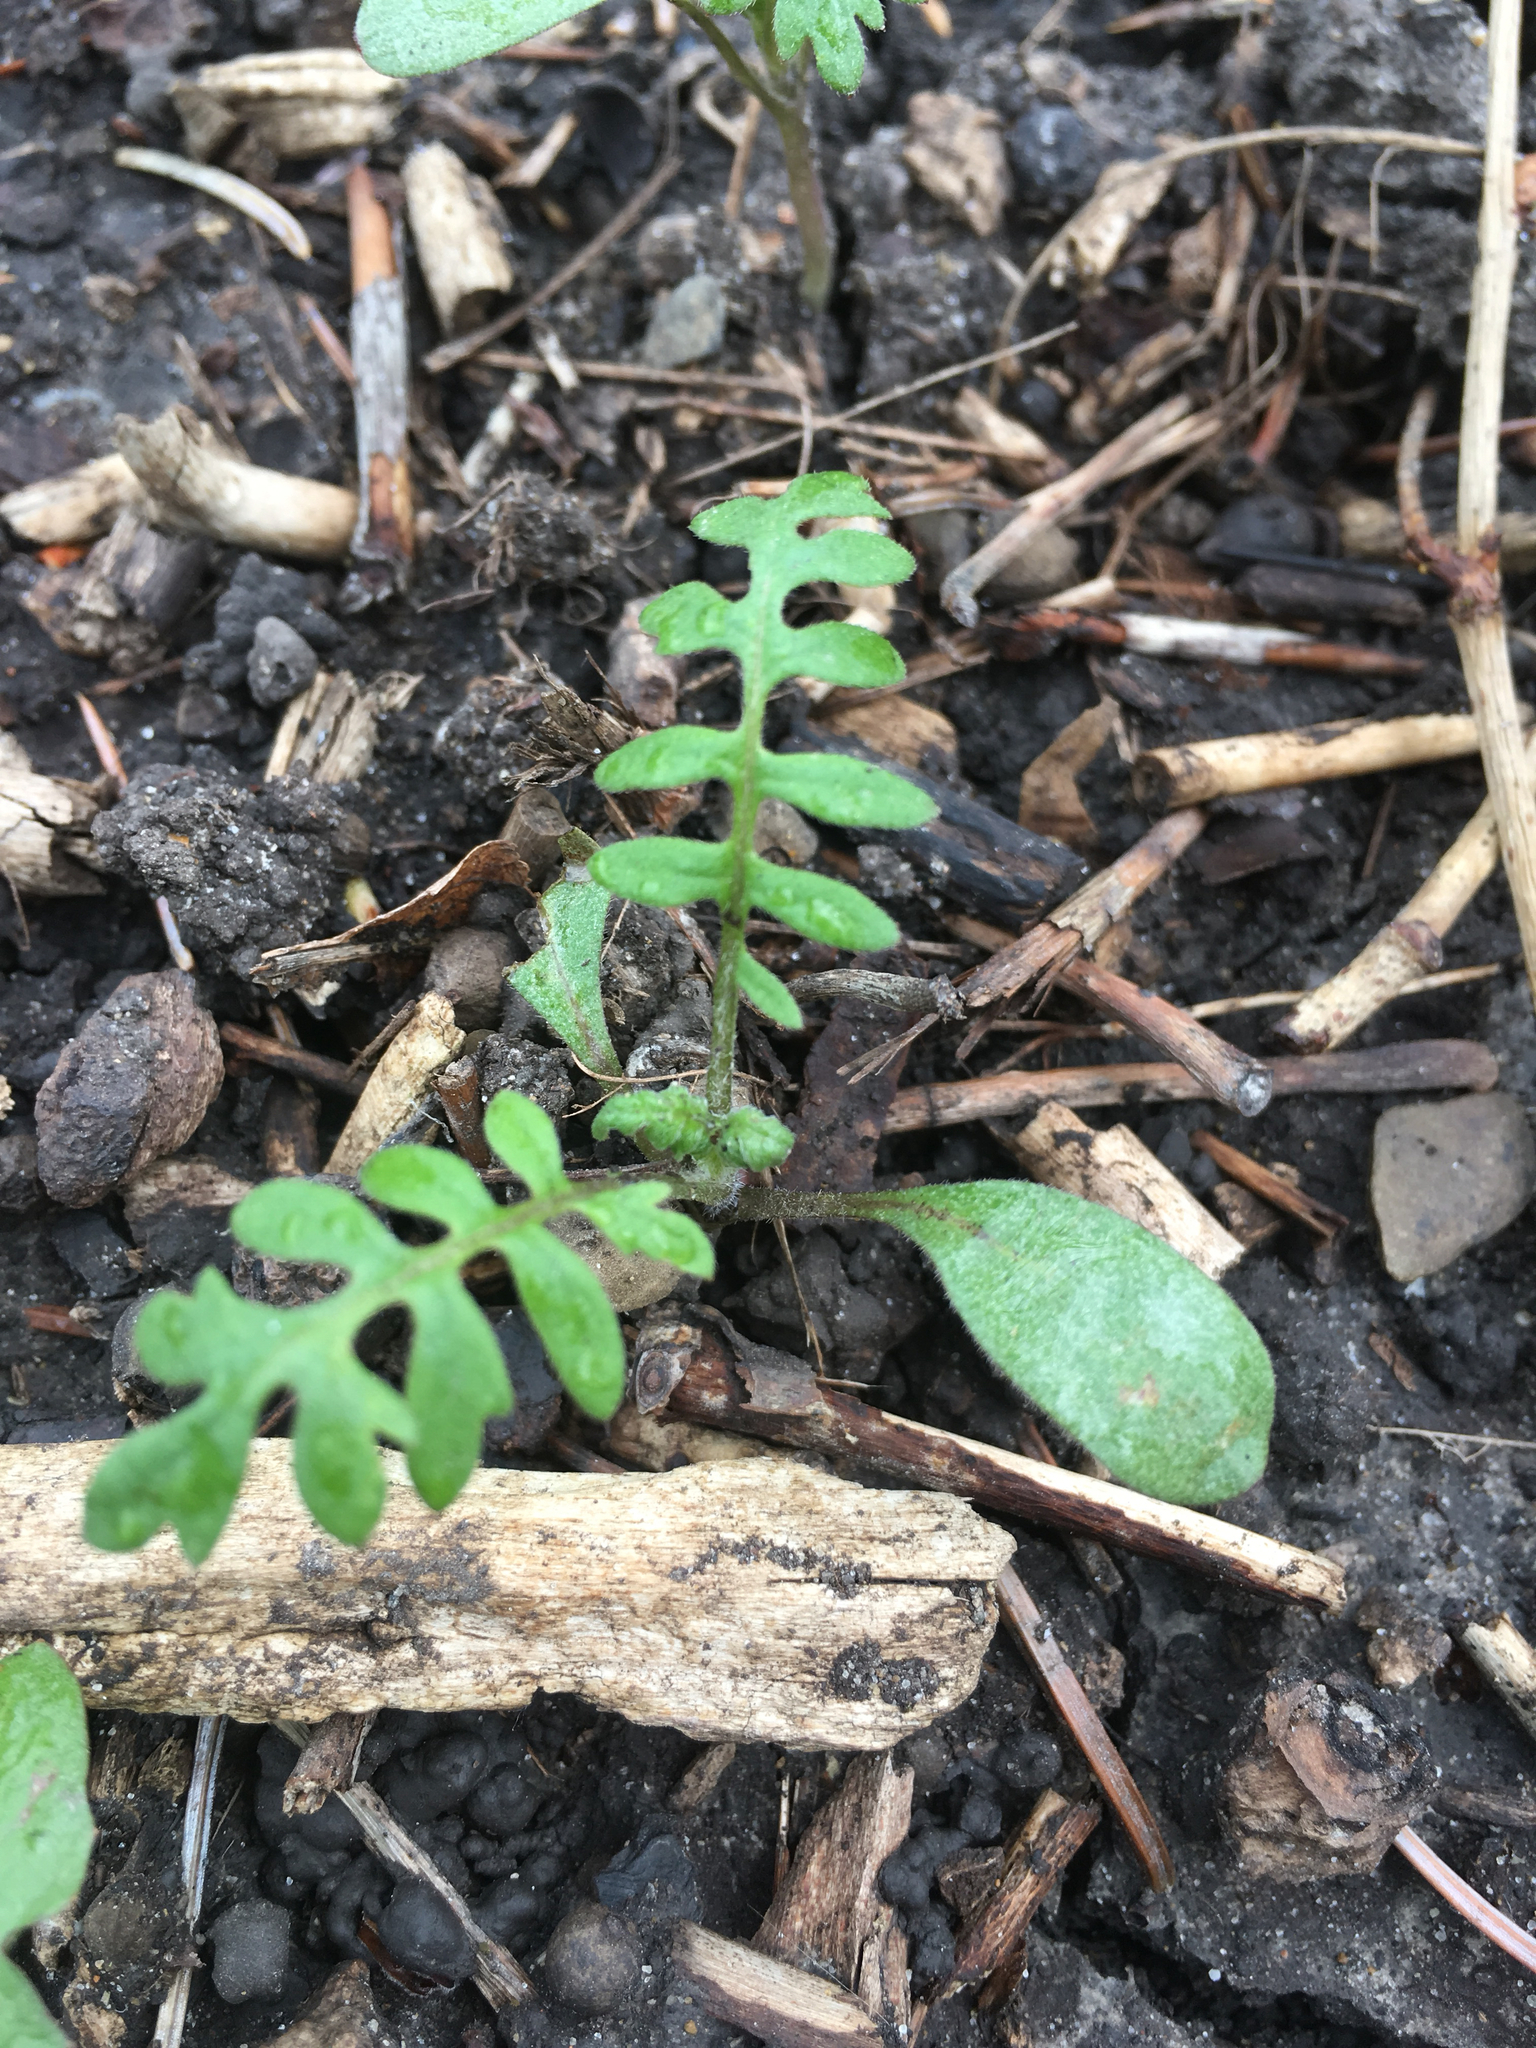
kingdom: Plantae
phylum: Tracheophyta
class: Magnoliopsida
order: Boraginales
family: Hydrophyllaceae
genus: Ellisia
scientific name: Ellisia nyctelea
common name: Aunt lucy
